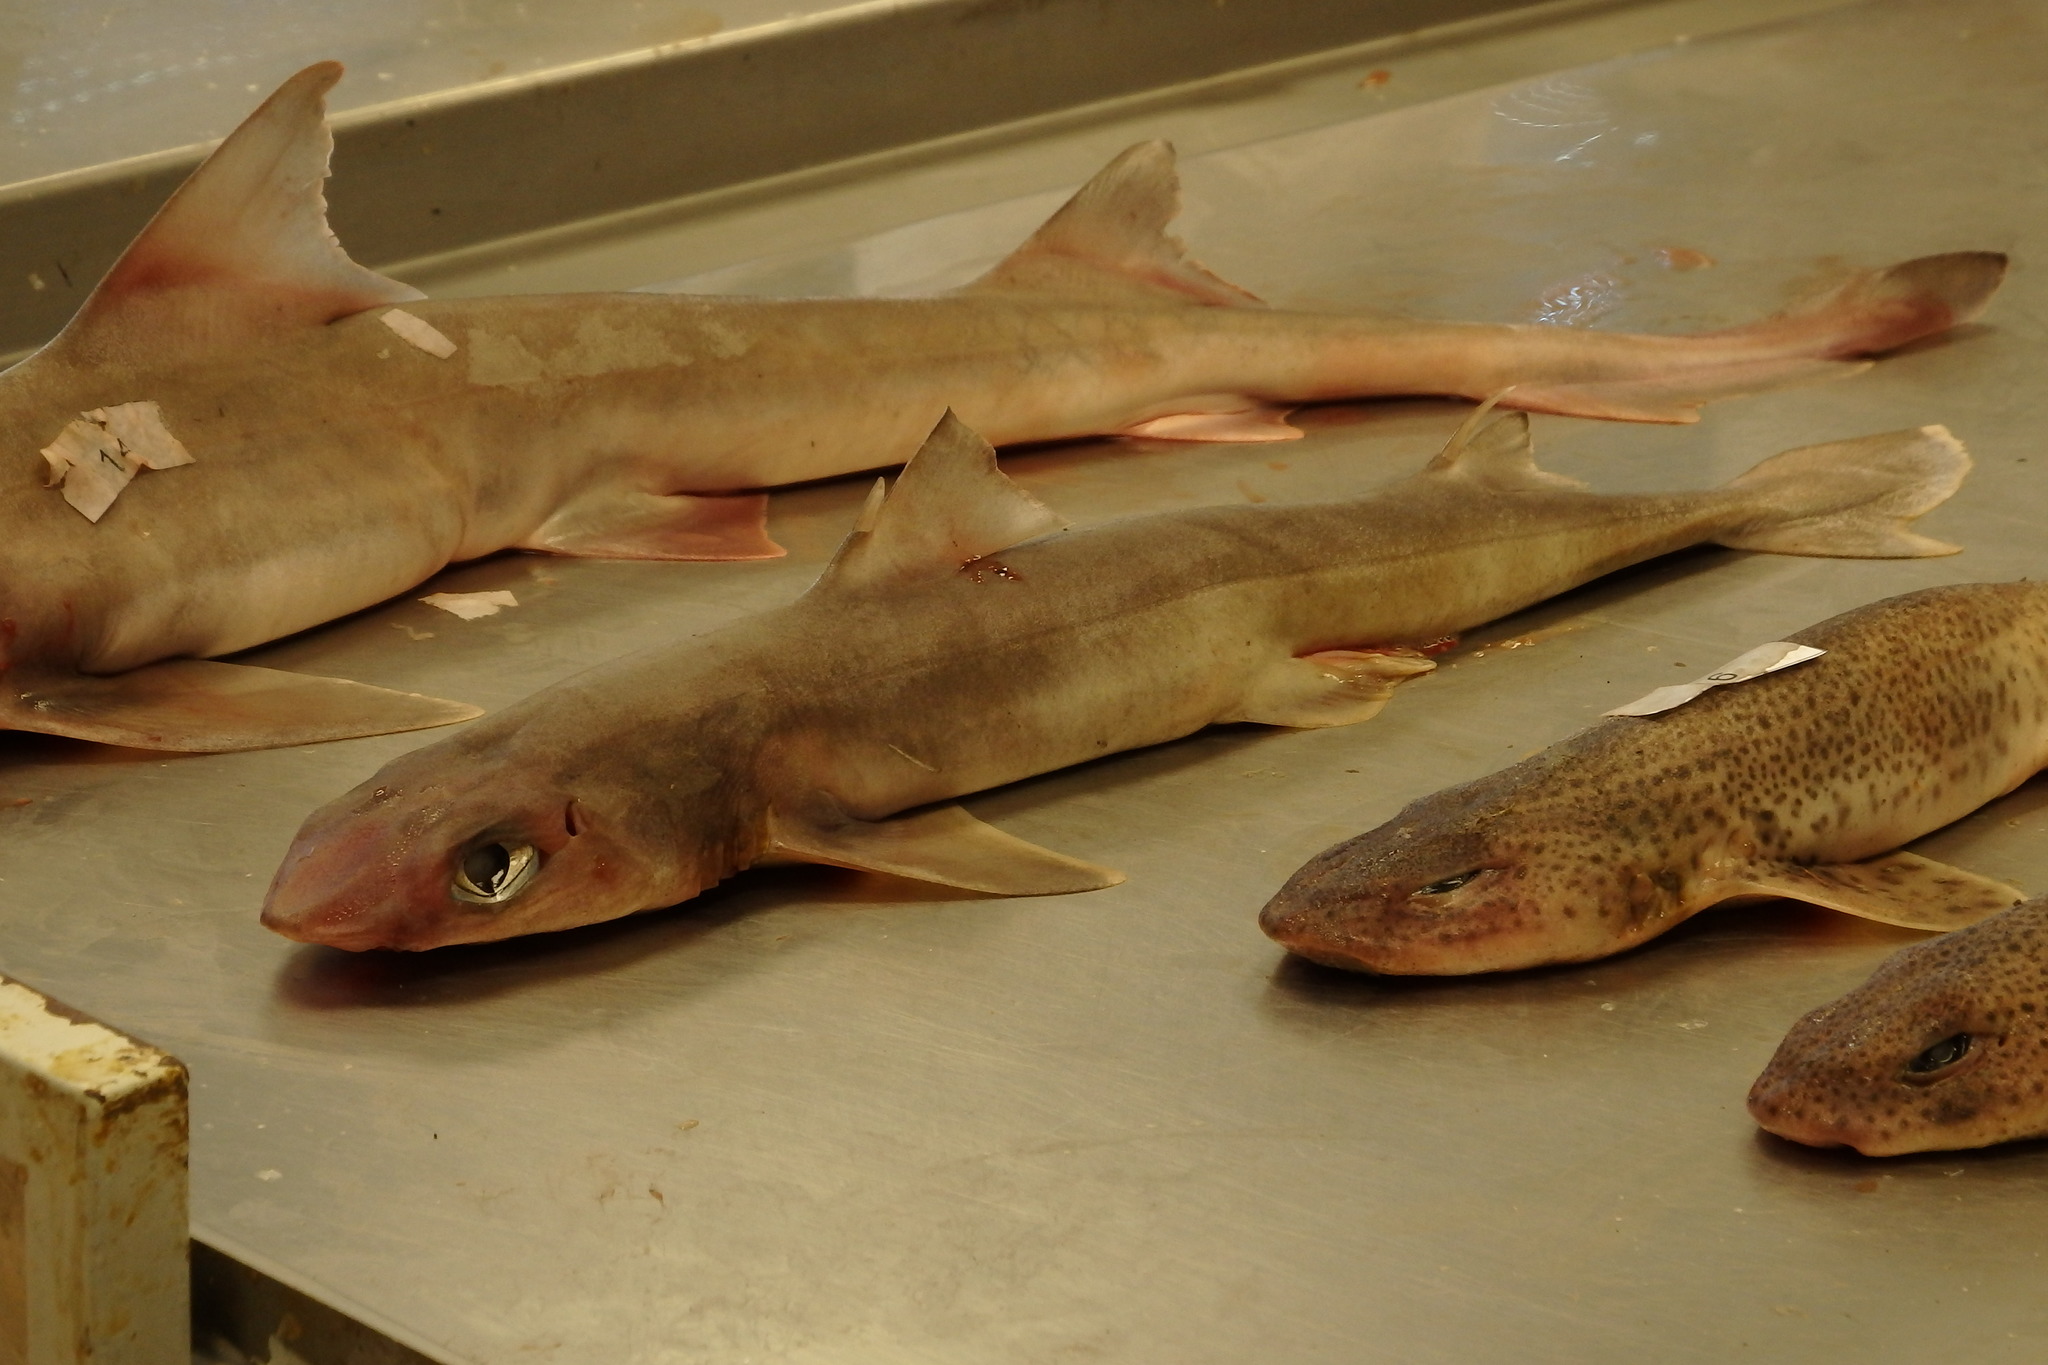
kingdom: Animalia
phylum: Chordata
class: Elasmobranchii
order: Squaliformes
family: Squalidae
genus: Squalus
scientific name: Squalus blainville
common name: Longnose spurdog
